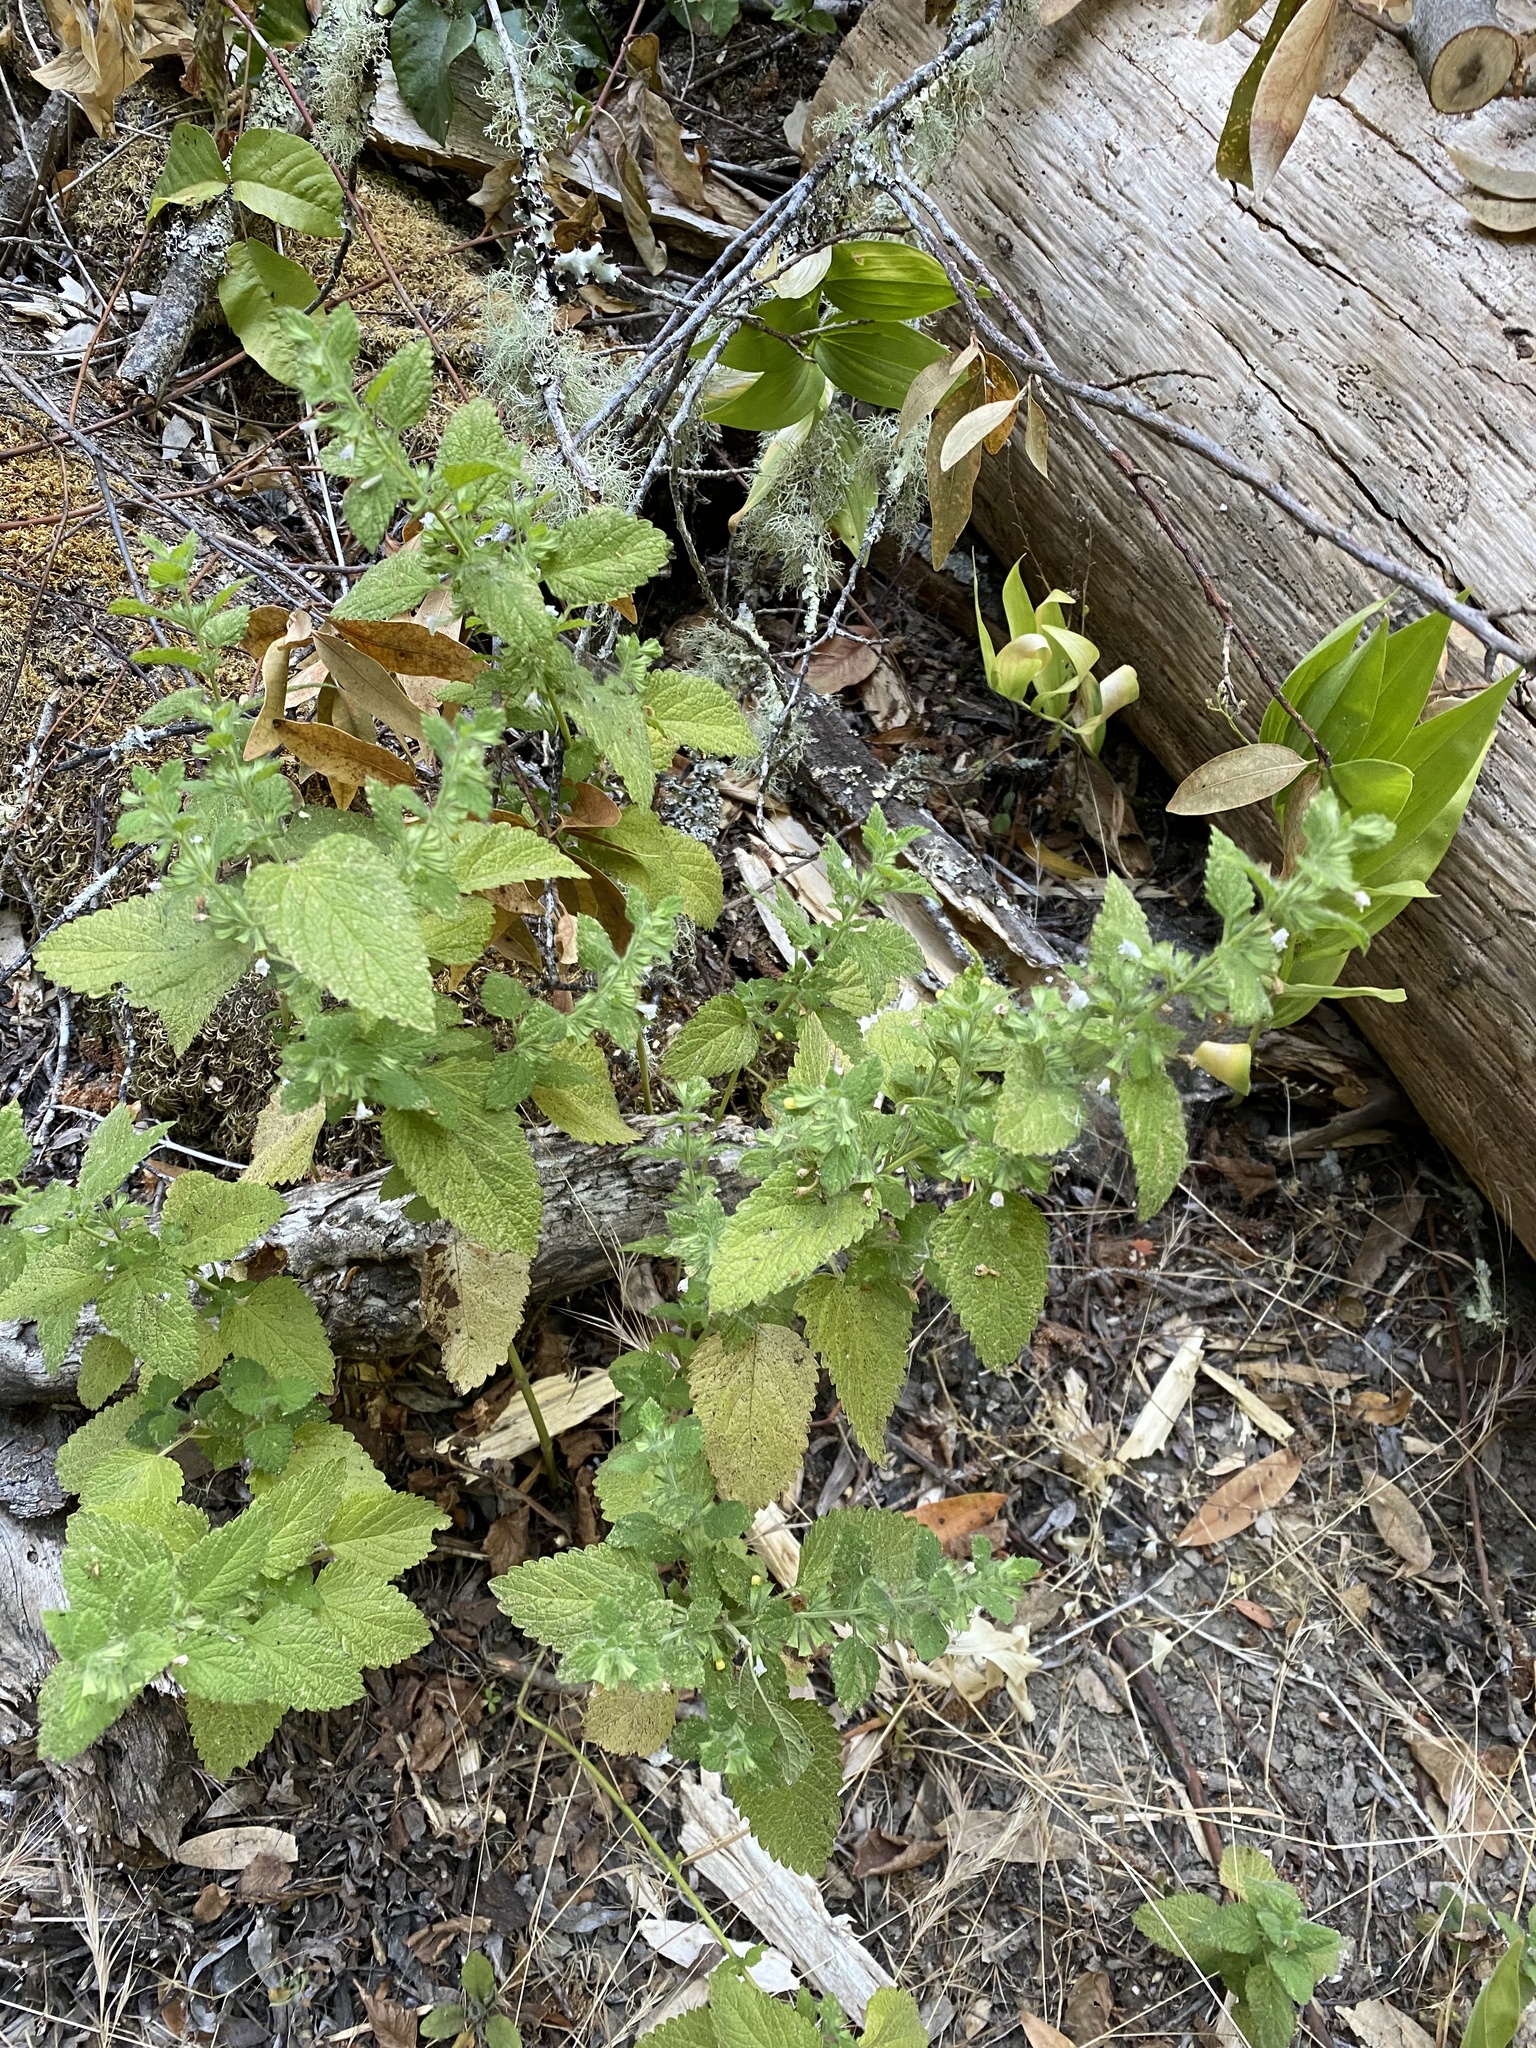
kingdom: Plantae
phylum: Tracheophyta
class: Magnoliopsida
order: Lamiales
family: Lamiaceae
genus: Melissa
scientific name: Melissa officinalis
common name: Balm
